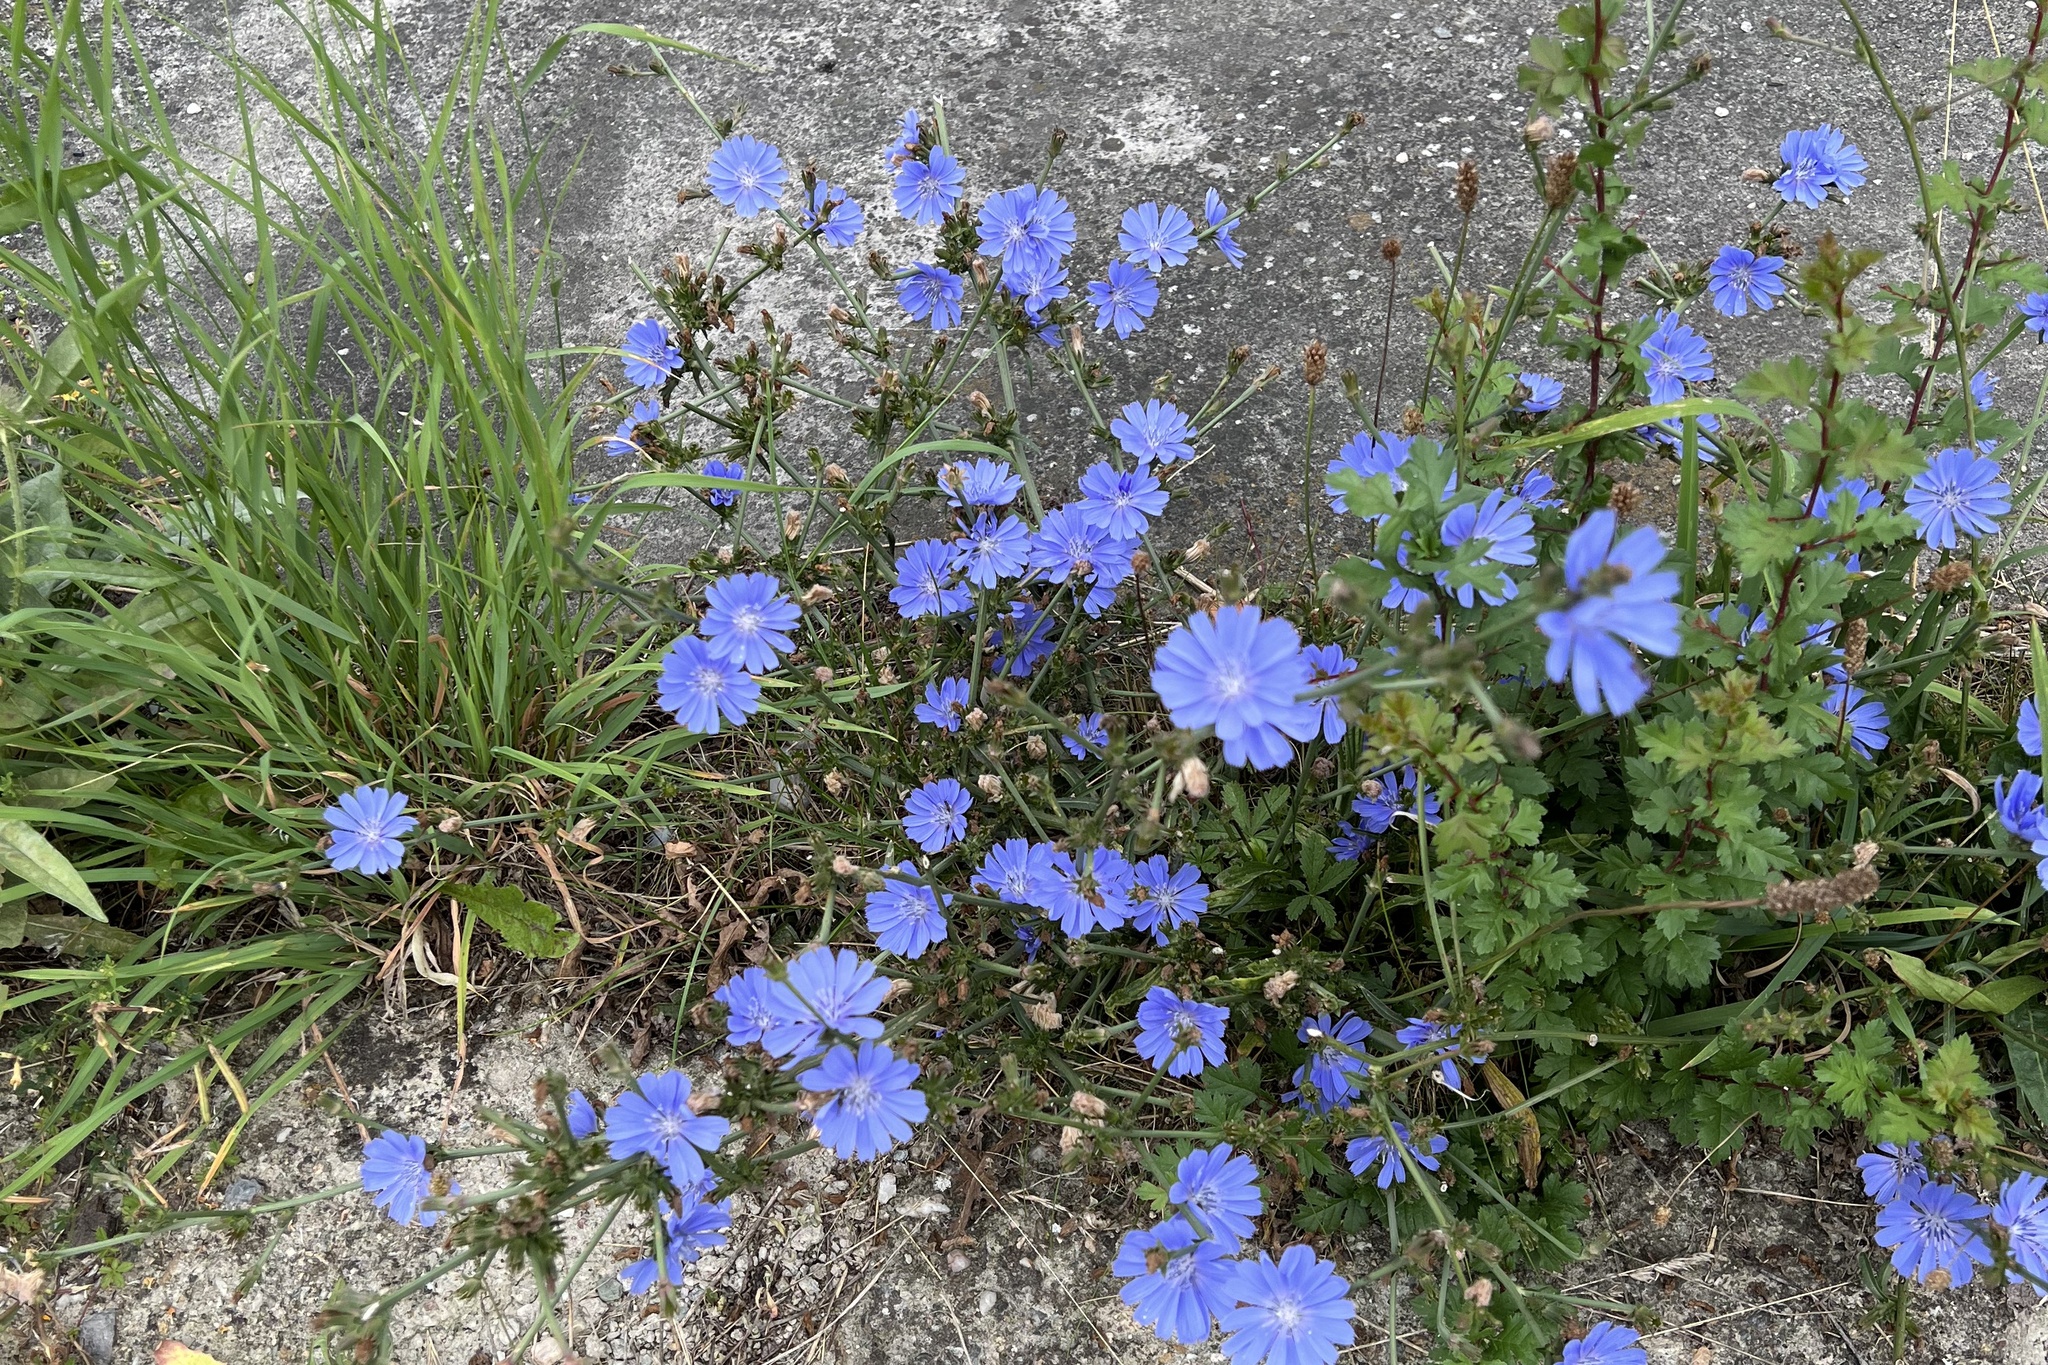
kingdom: Plantae
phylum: Tracheophyta
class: Magnoliopsida
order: Asterales
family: Asteraceae
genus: Cichorium
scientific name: Cichorium intybus
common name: Chicory
